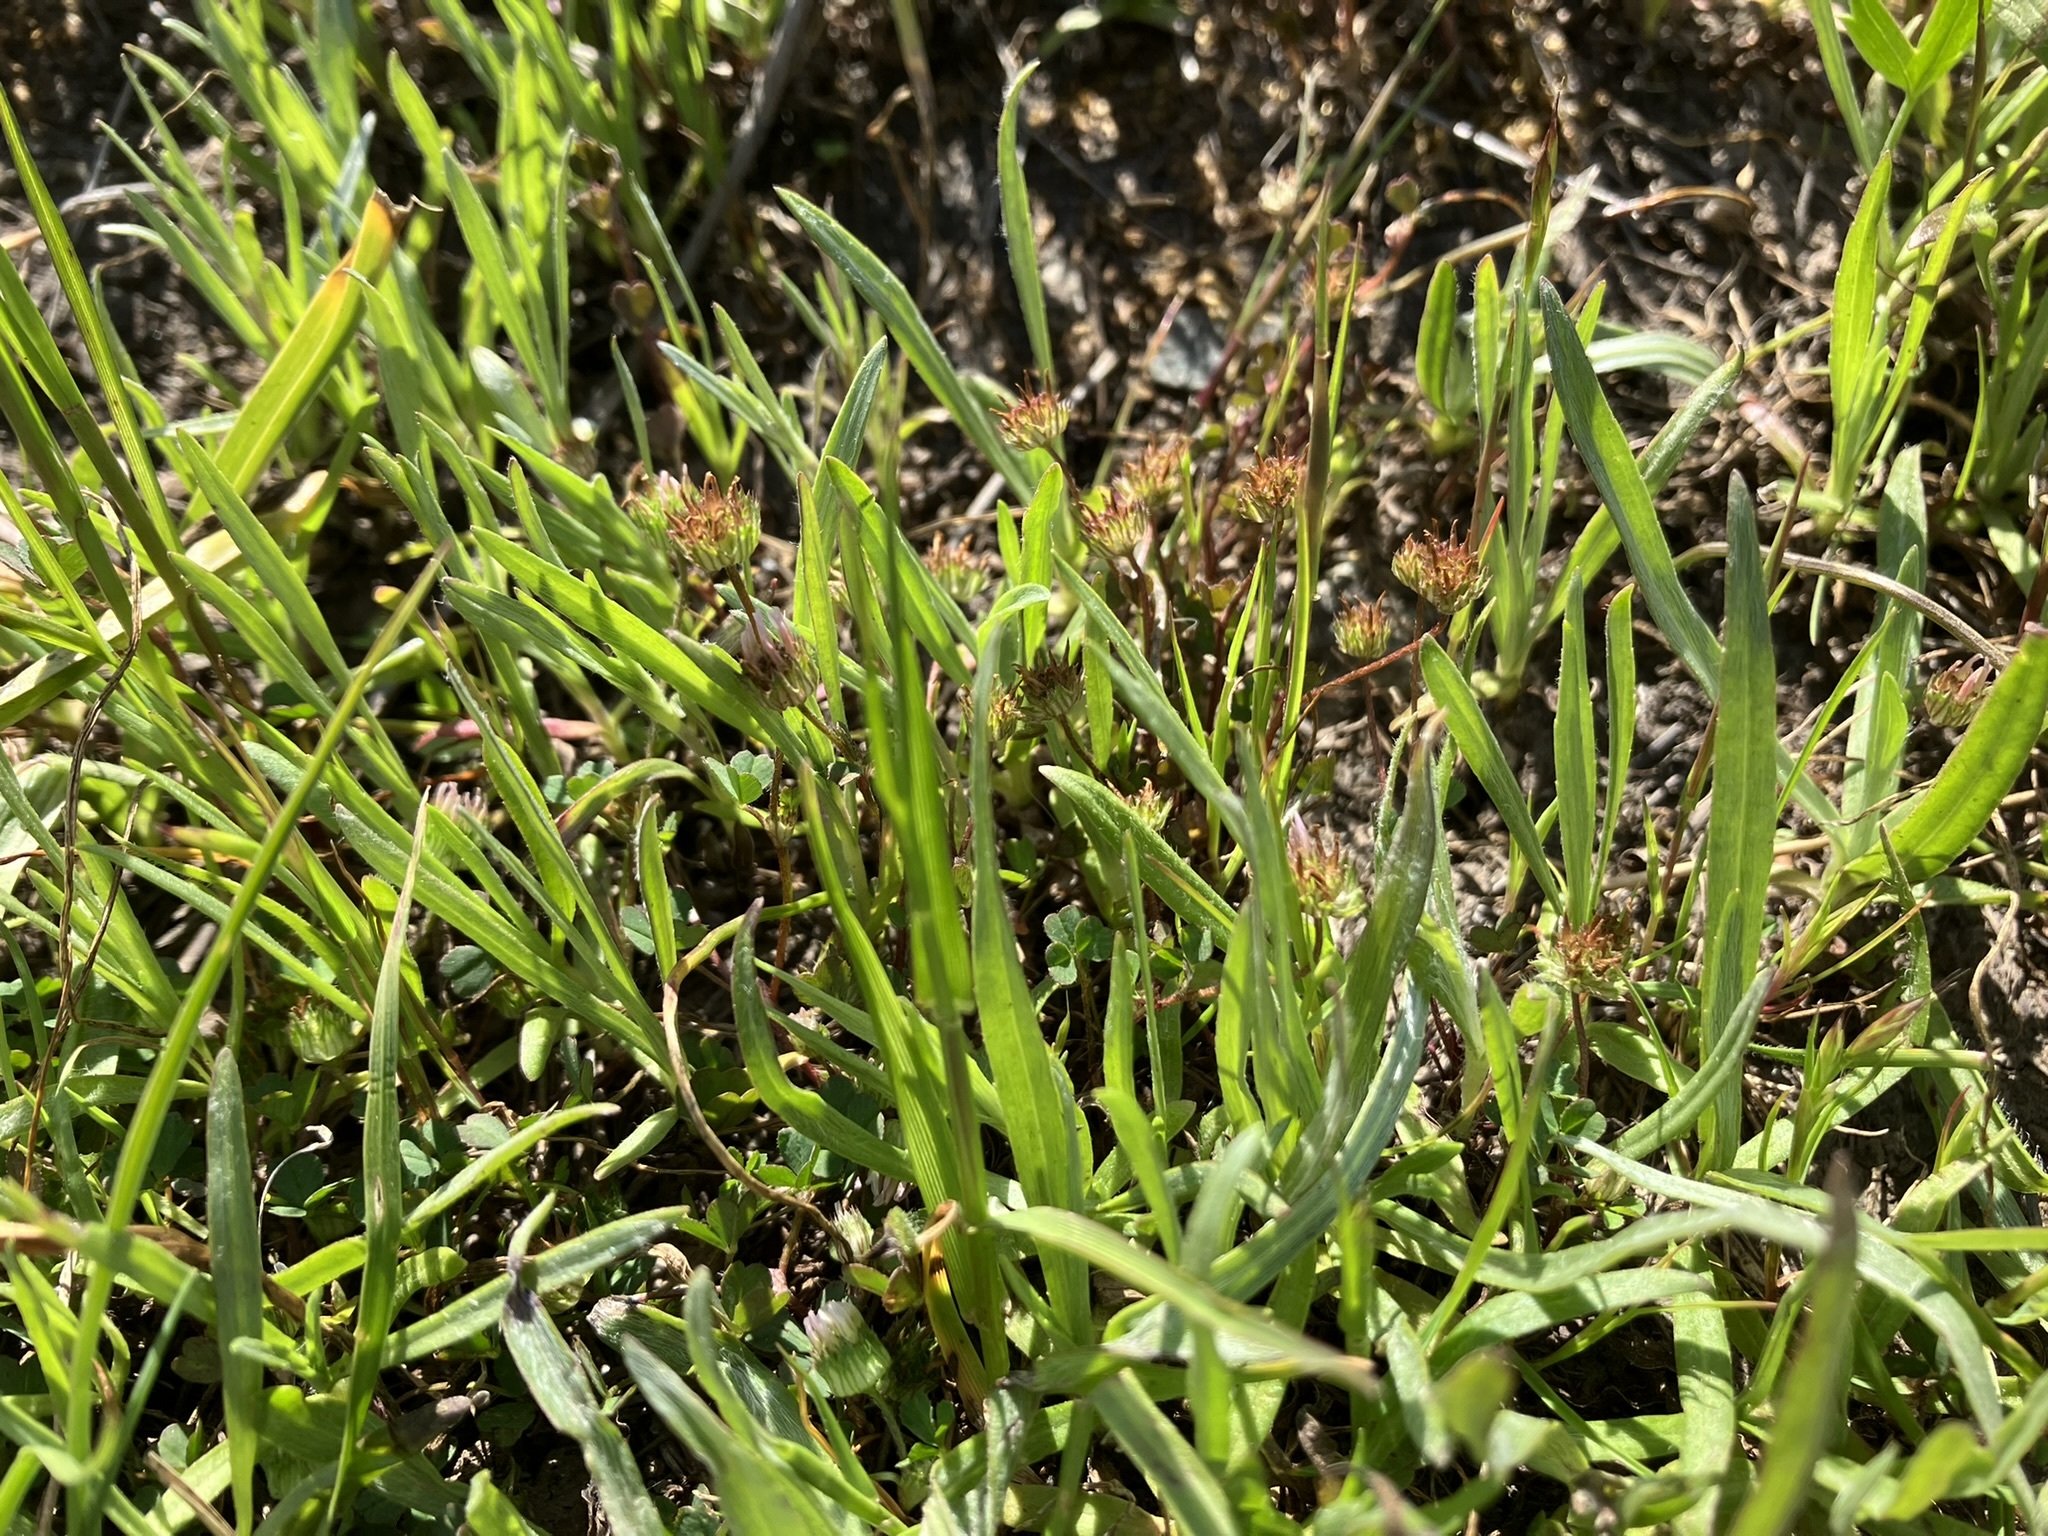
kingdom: Plantae
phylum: Tracheophyta
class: Magnoliopsida
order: Fabales
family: Fabaceae
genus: Trifolium
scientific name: Trifolium microdon
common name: Thimble clover
